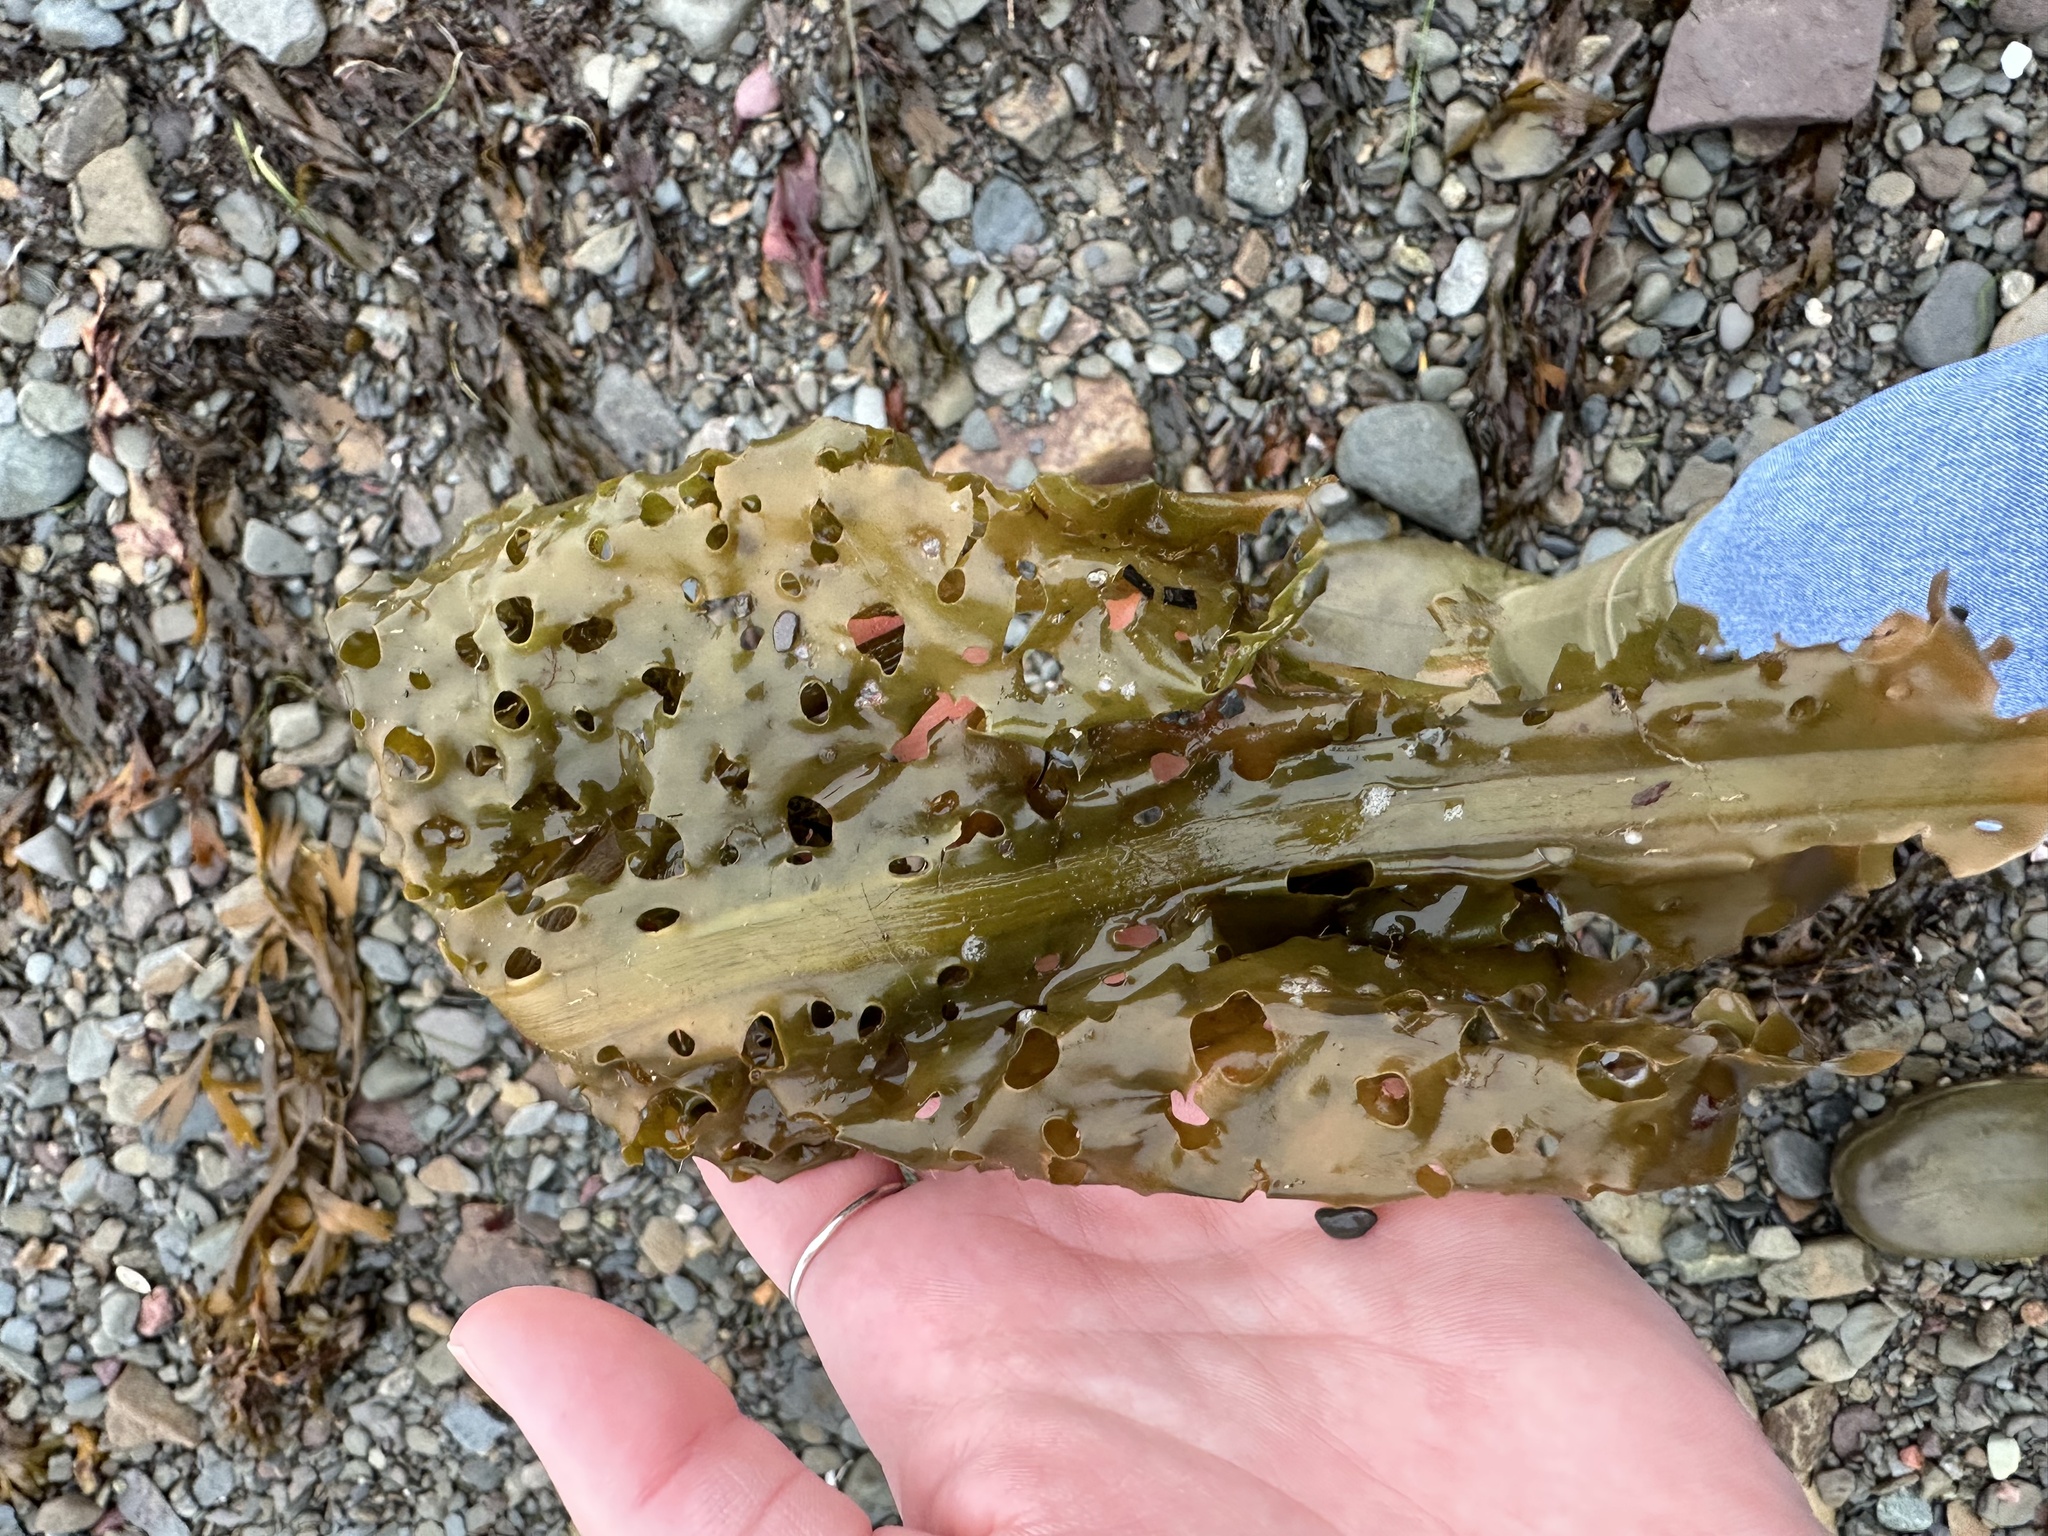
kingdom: Chromista
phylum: Ochrophyta
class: Phaeophyceae
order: Laminariales
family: Costariaceae
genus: Agarum
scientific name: Agarum clathratum
